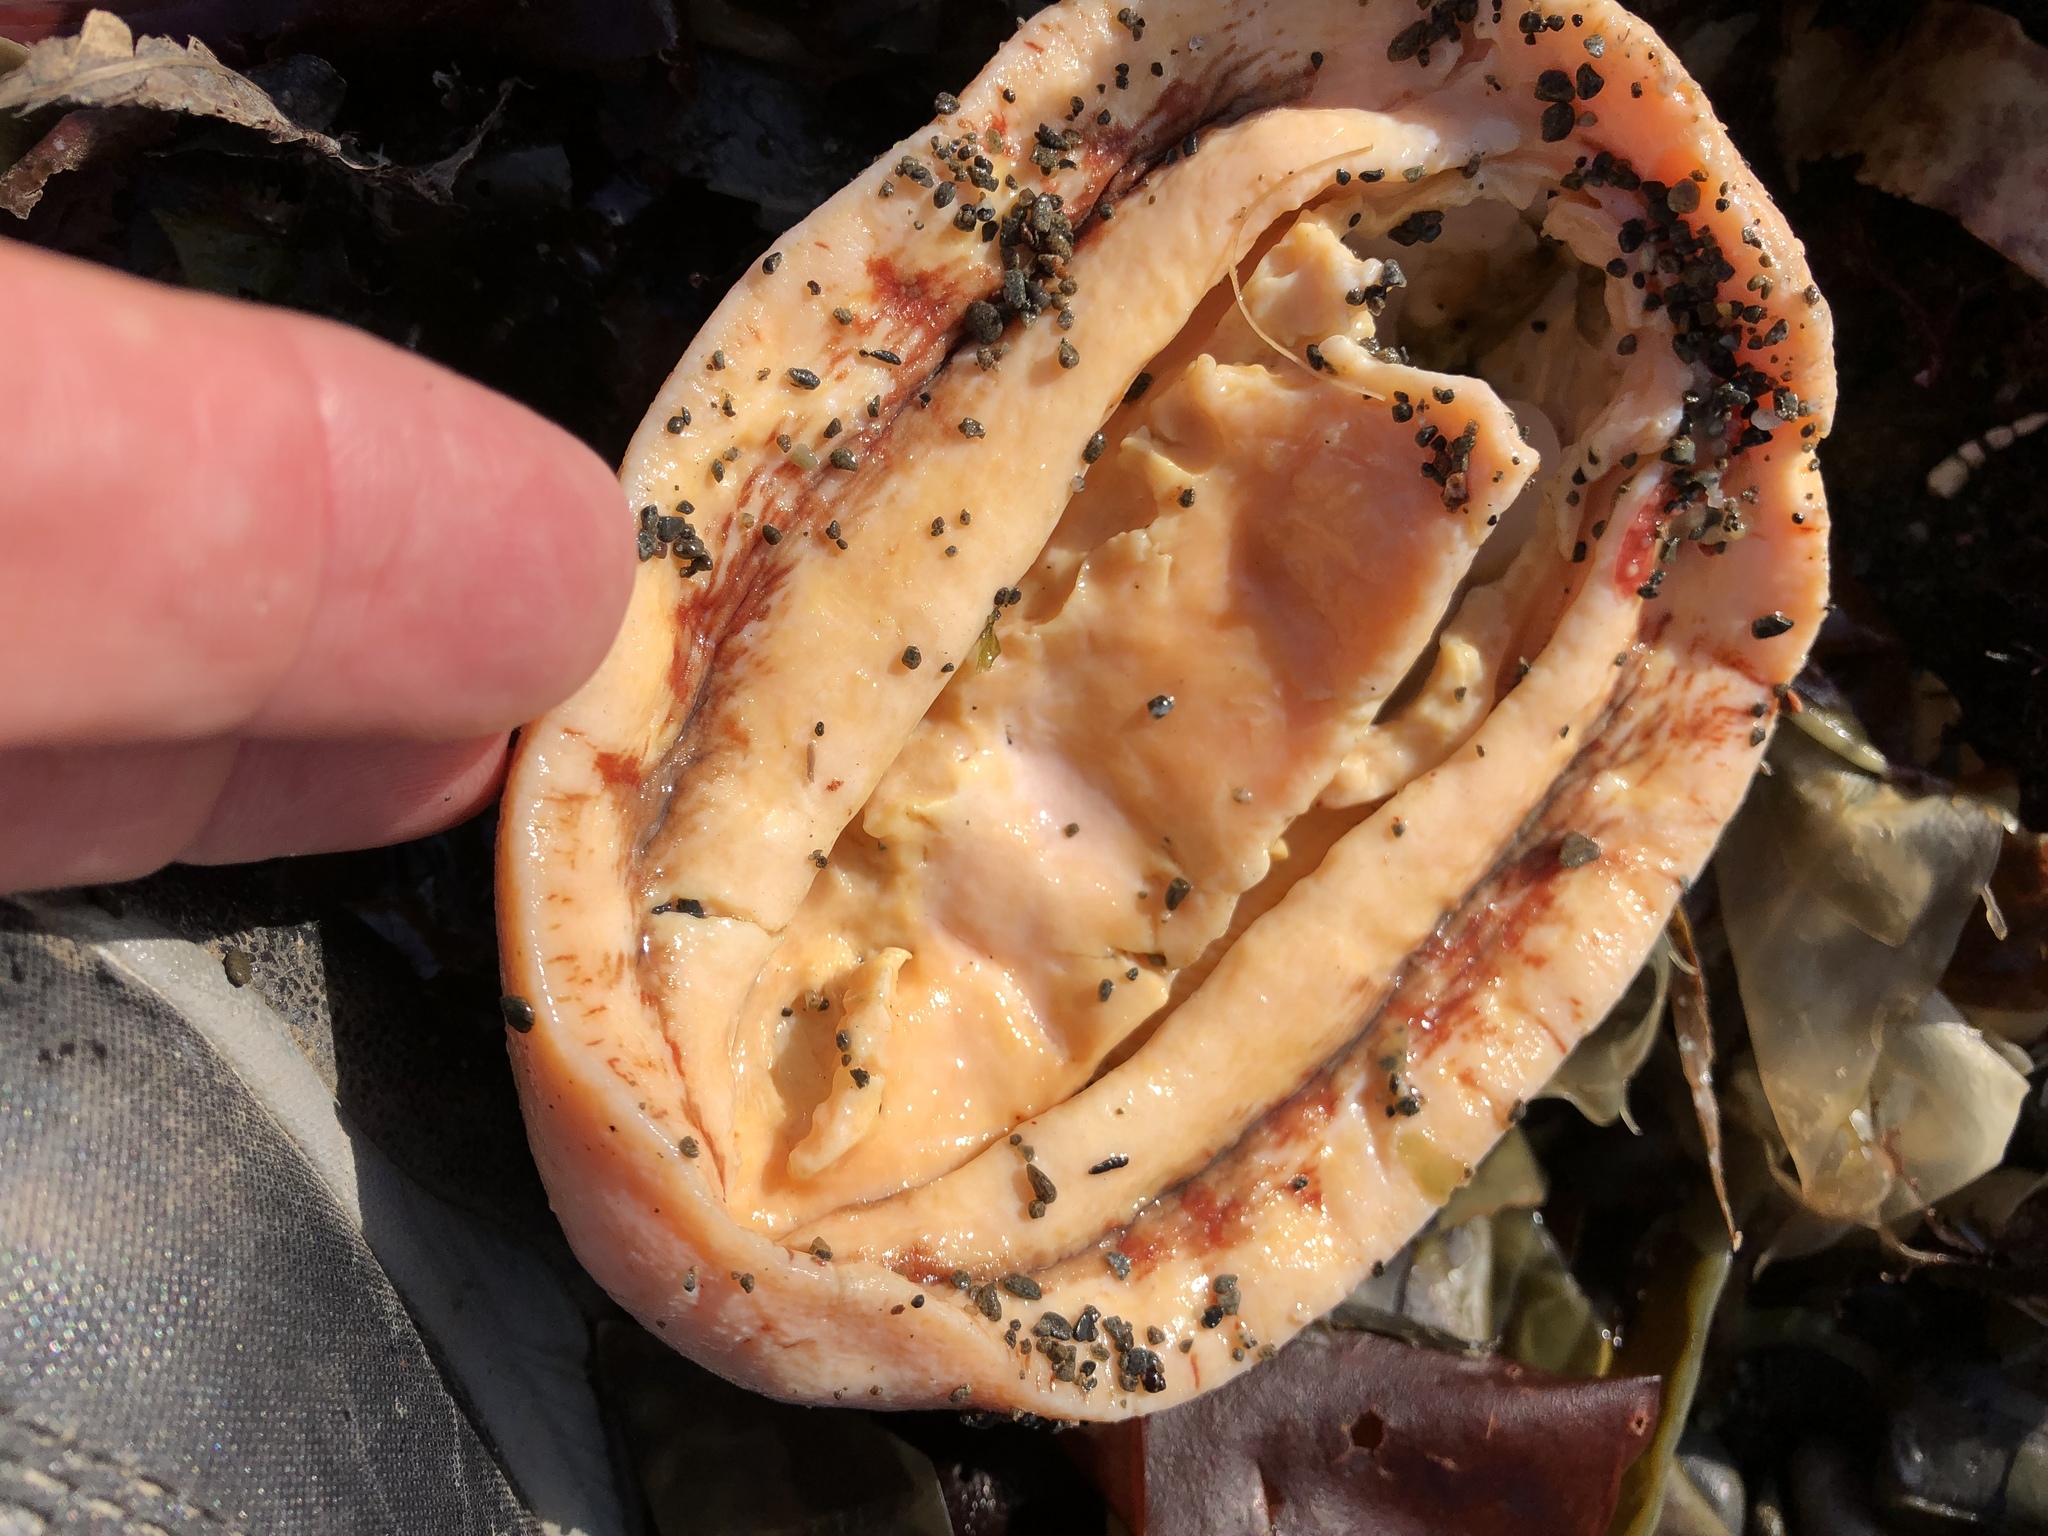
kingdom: Animalia
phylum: Mollusca
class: Polyplacophora
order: Chitonida
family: Acanthochitonidae
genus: Cryptochiton
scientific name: Cryptochiton stelleri
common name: Giant pacific chiton
